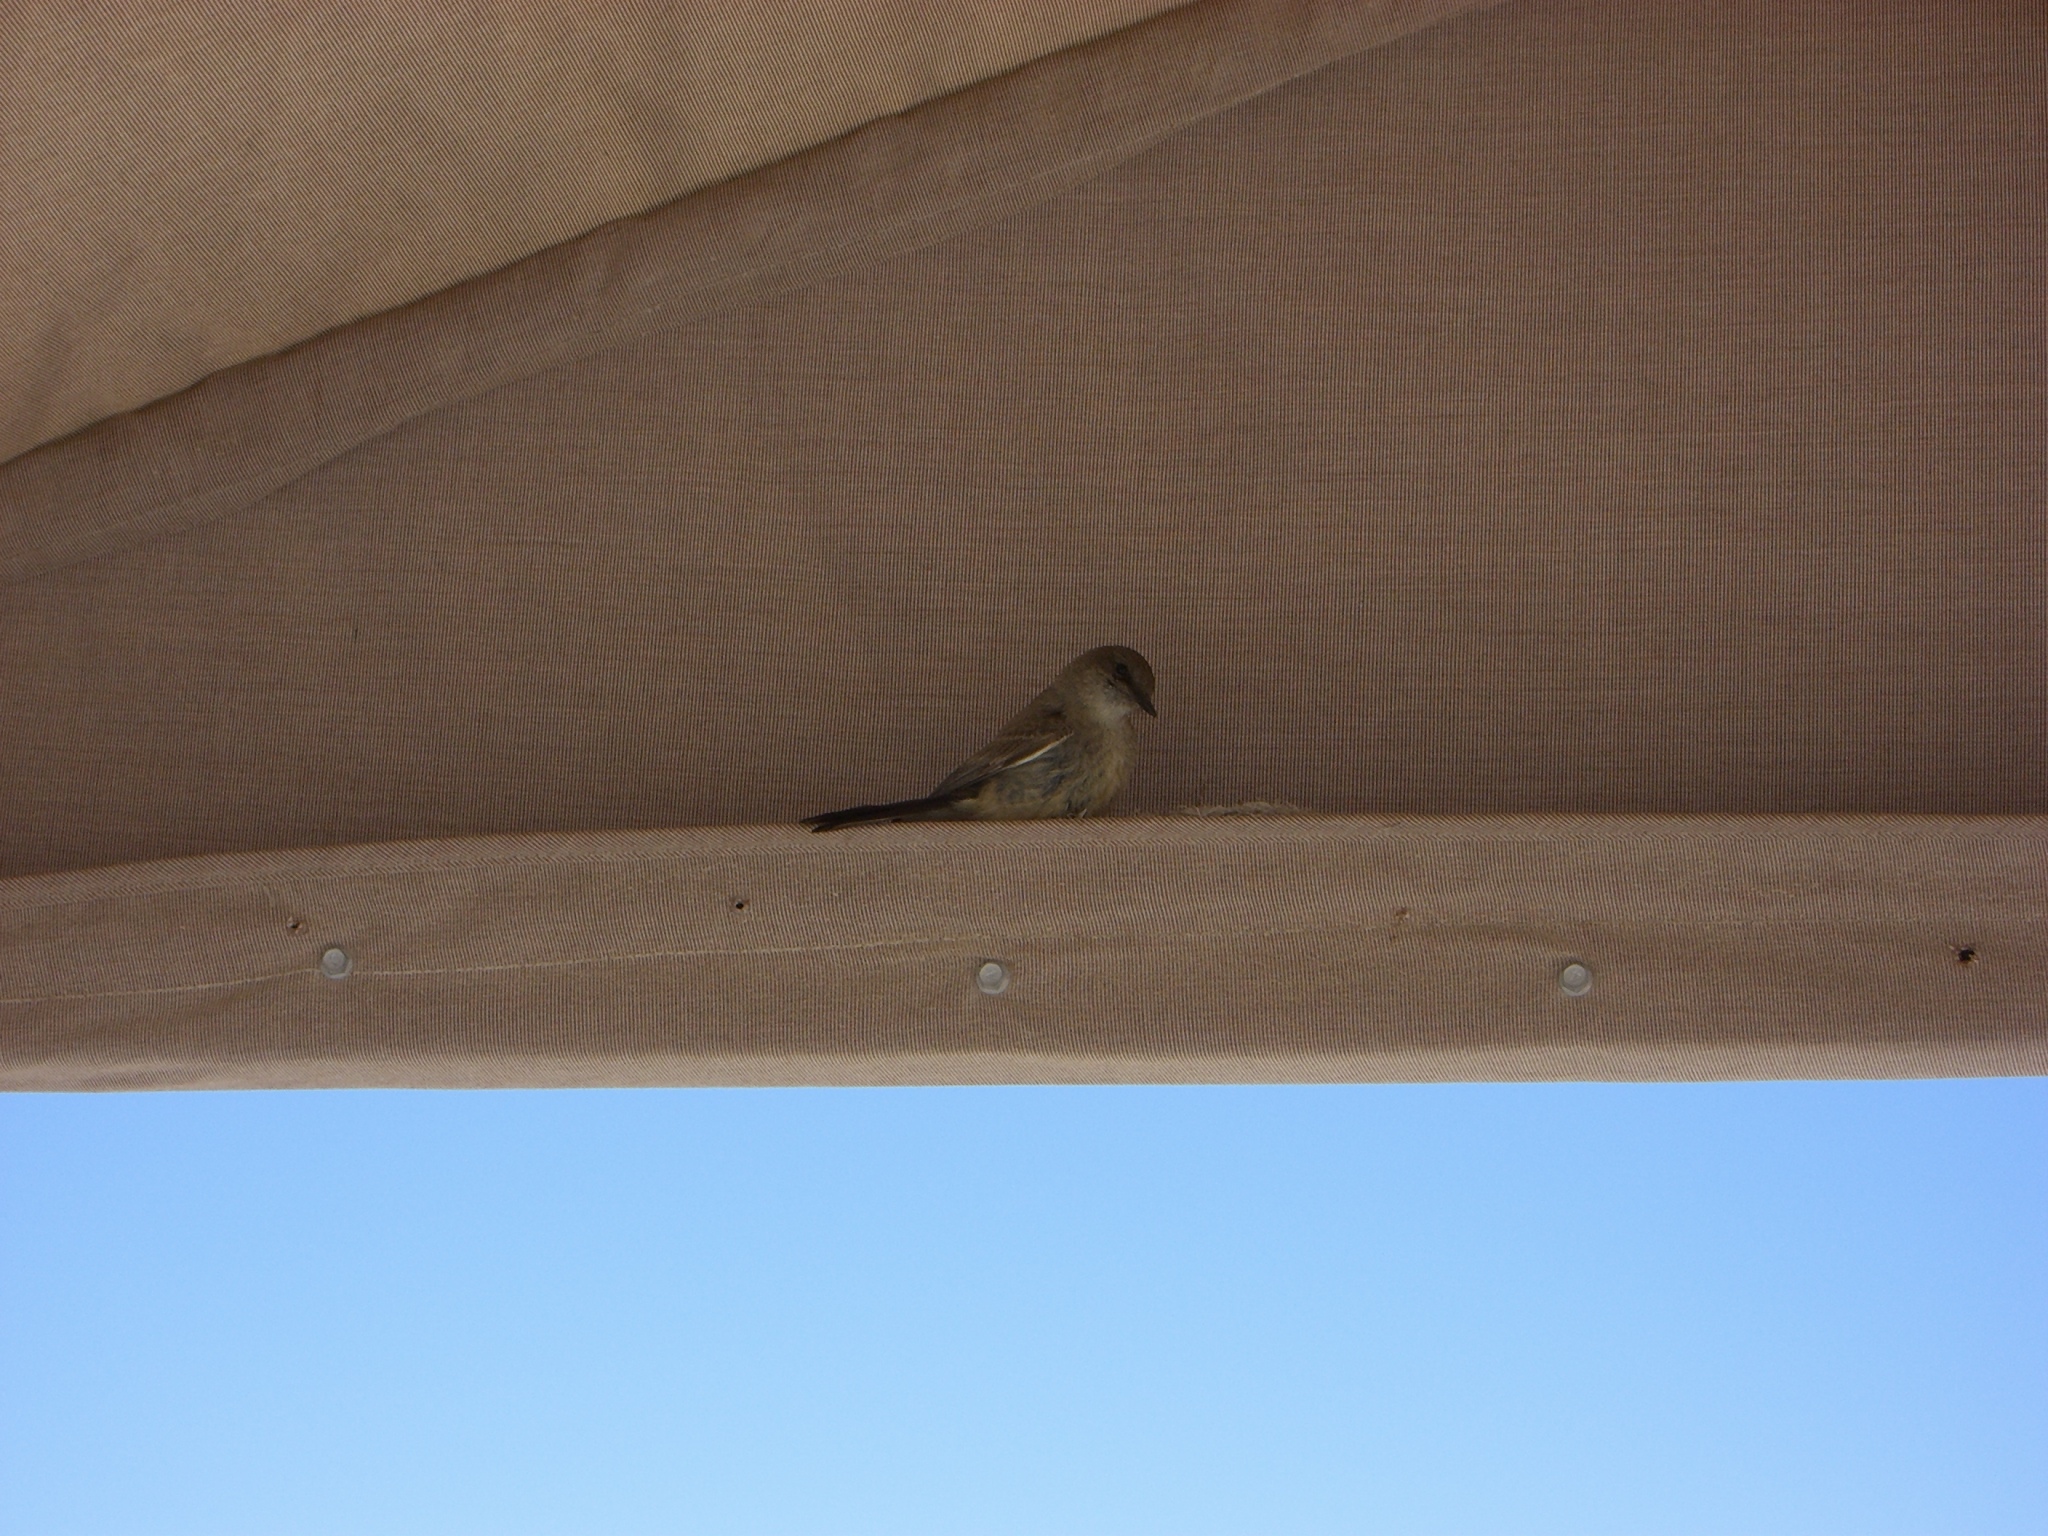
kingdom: Animalia
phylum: Chordata
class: Aves
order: Passeriformes
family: Tyrannidae
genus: Sayornis
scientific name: Sayornis saya
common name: Say's phoebe
